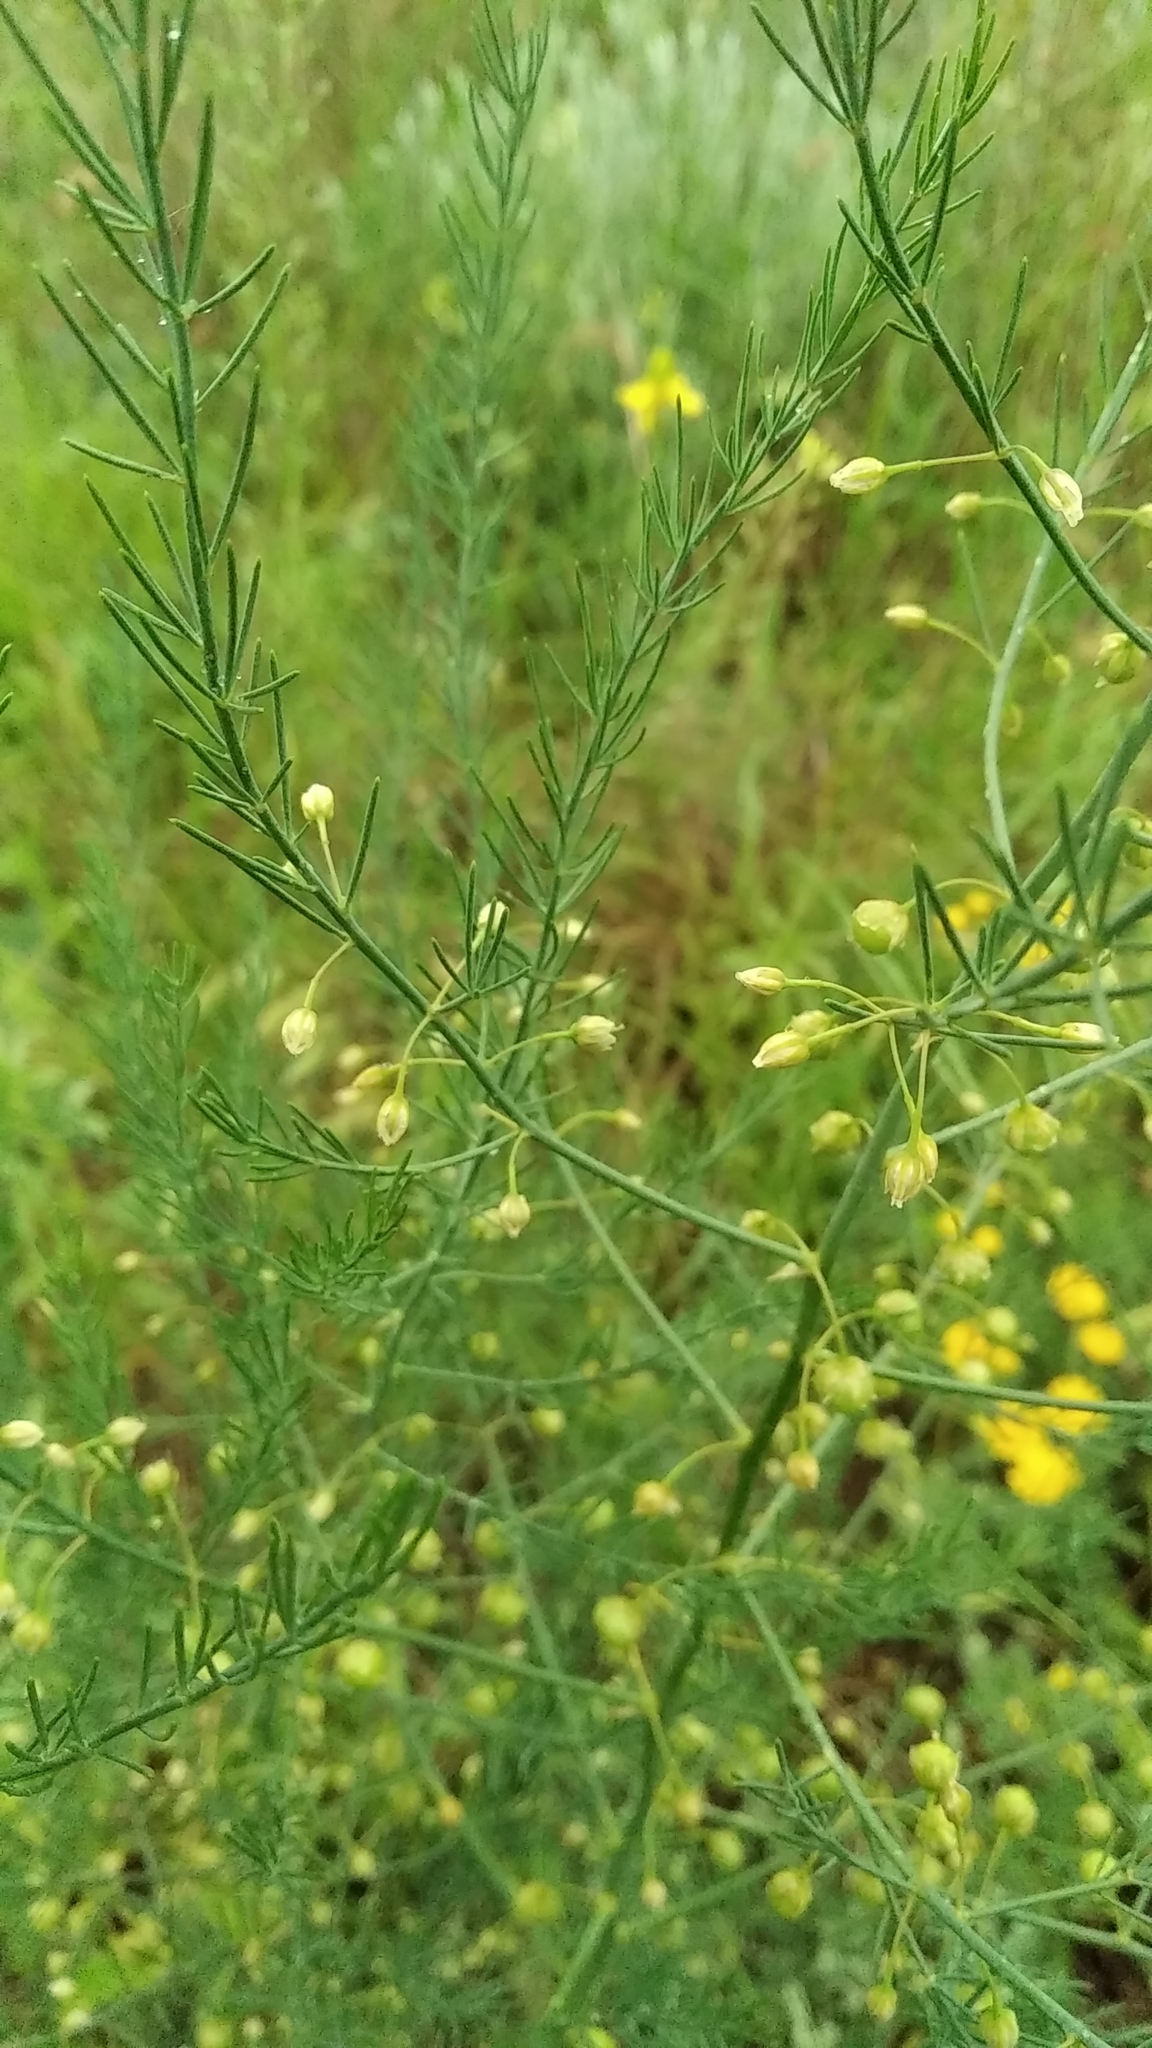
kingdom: Plantae
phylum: Tracheophyta
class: Liliopsida
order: Asparagales
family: Asparagaceae
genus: Asparagus
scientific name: Asparagus officinalis
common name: Garden asparagus
